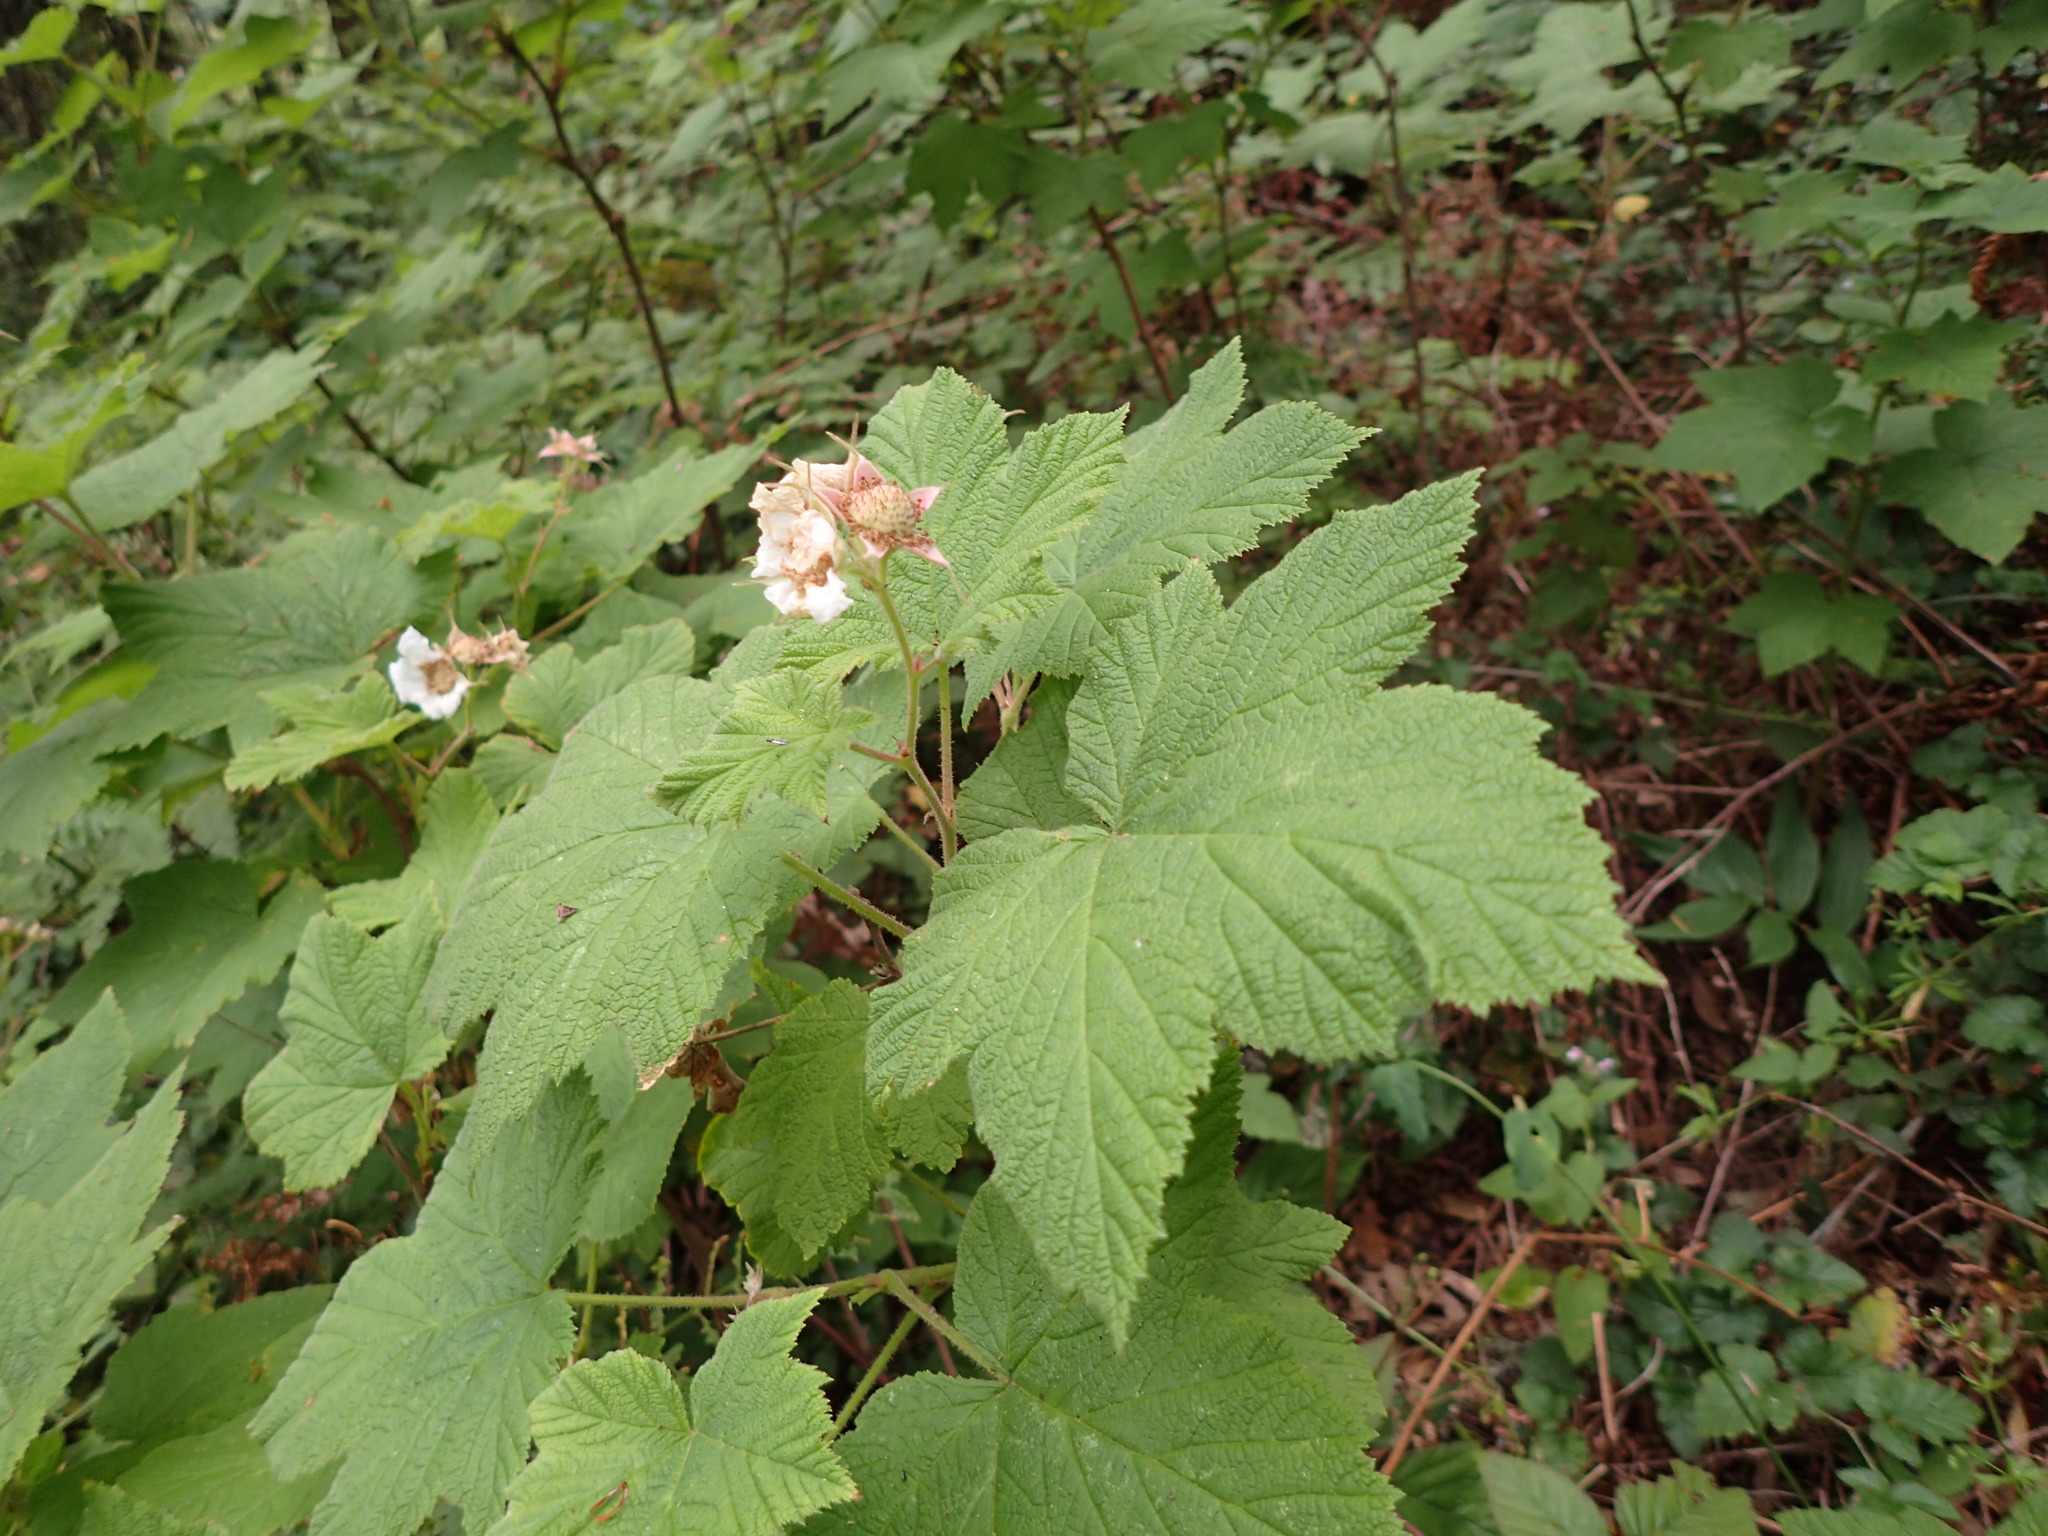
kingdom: Plantae
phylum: Tracheophyta
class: Magnoliopsida
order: Rosales
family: Rosaceae
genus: Rubus
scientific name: Rubus parviflorus
